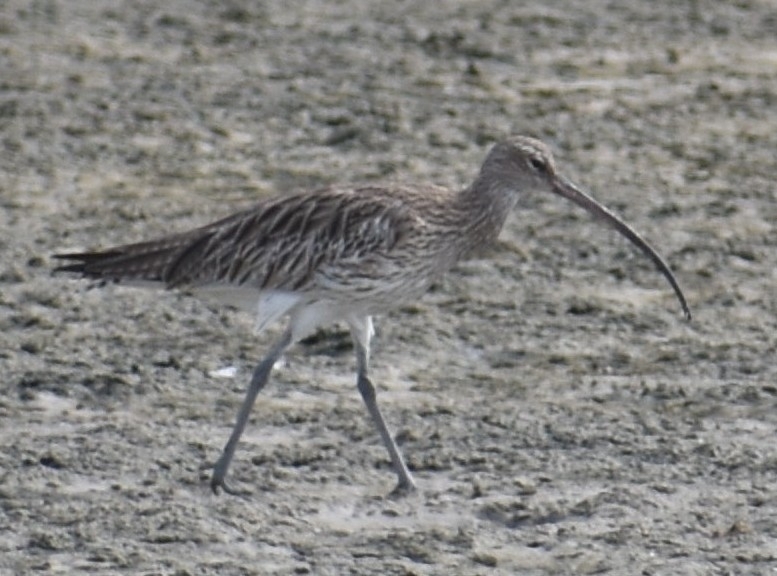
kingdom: Animalia
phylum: Chordata
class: Aves
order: Charadriiformes
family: Scolopacidae
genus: Numenius
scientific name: Numenius arquata
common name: Eurasian curlew
